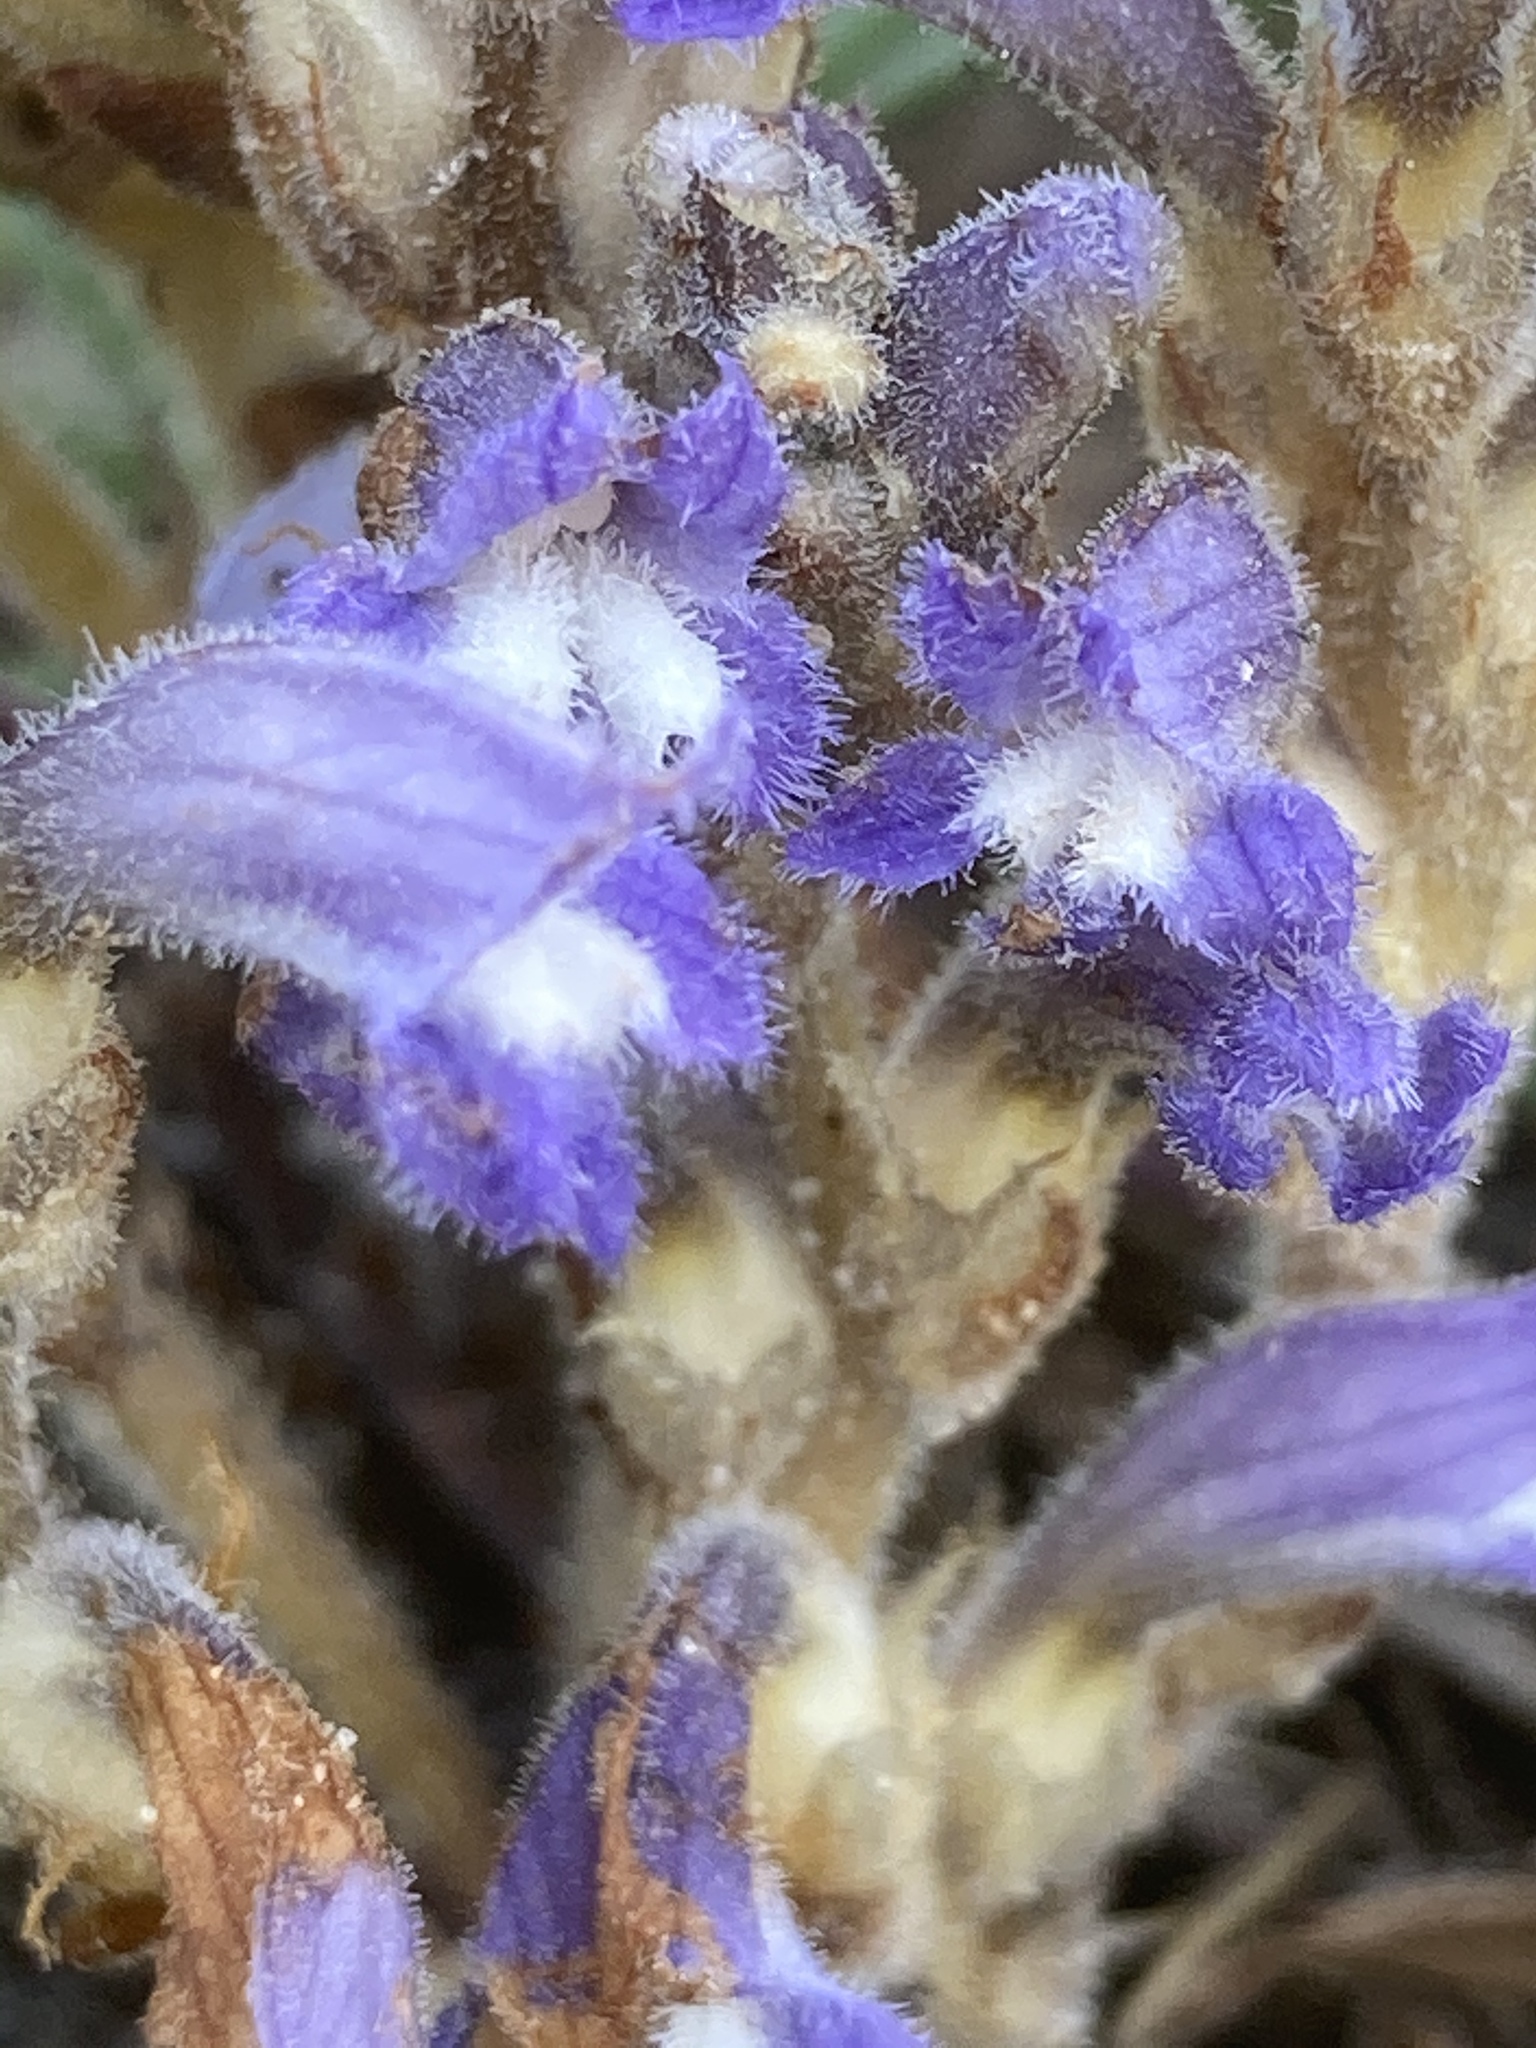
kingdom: Plantae
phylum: Tracheophyta
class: Magnoliopsida
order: Lamiales
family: Orobanchaceae
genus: Phelipanche
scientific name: Phelipanche mutelii
